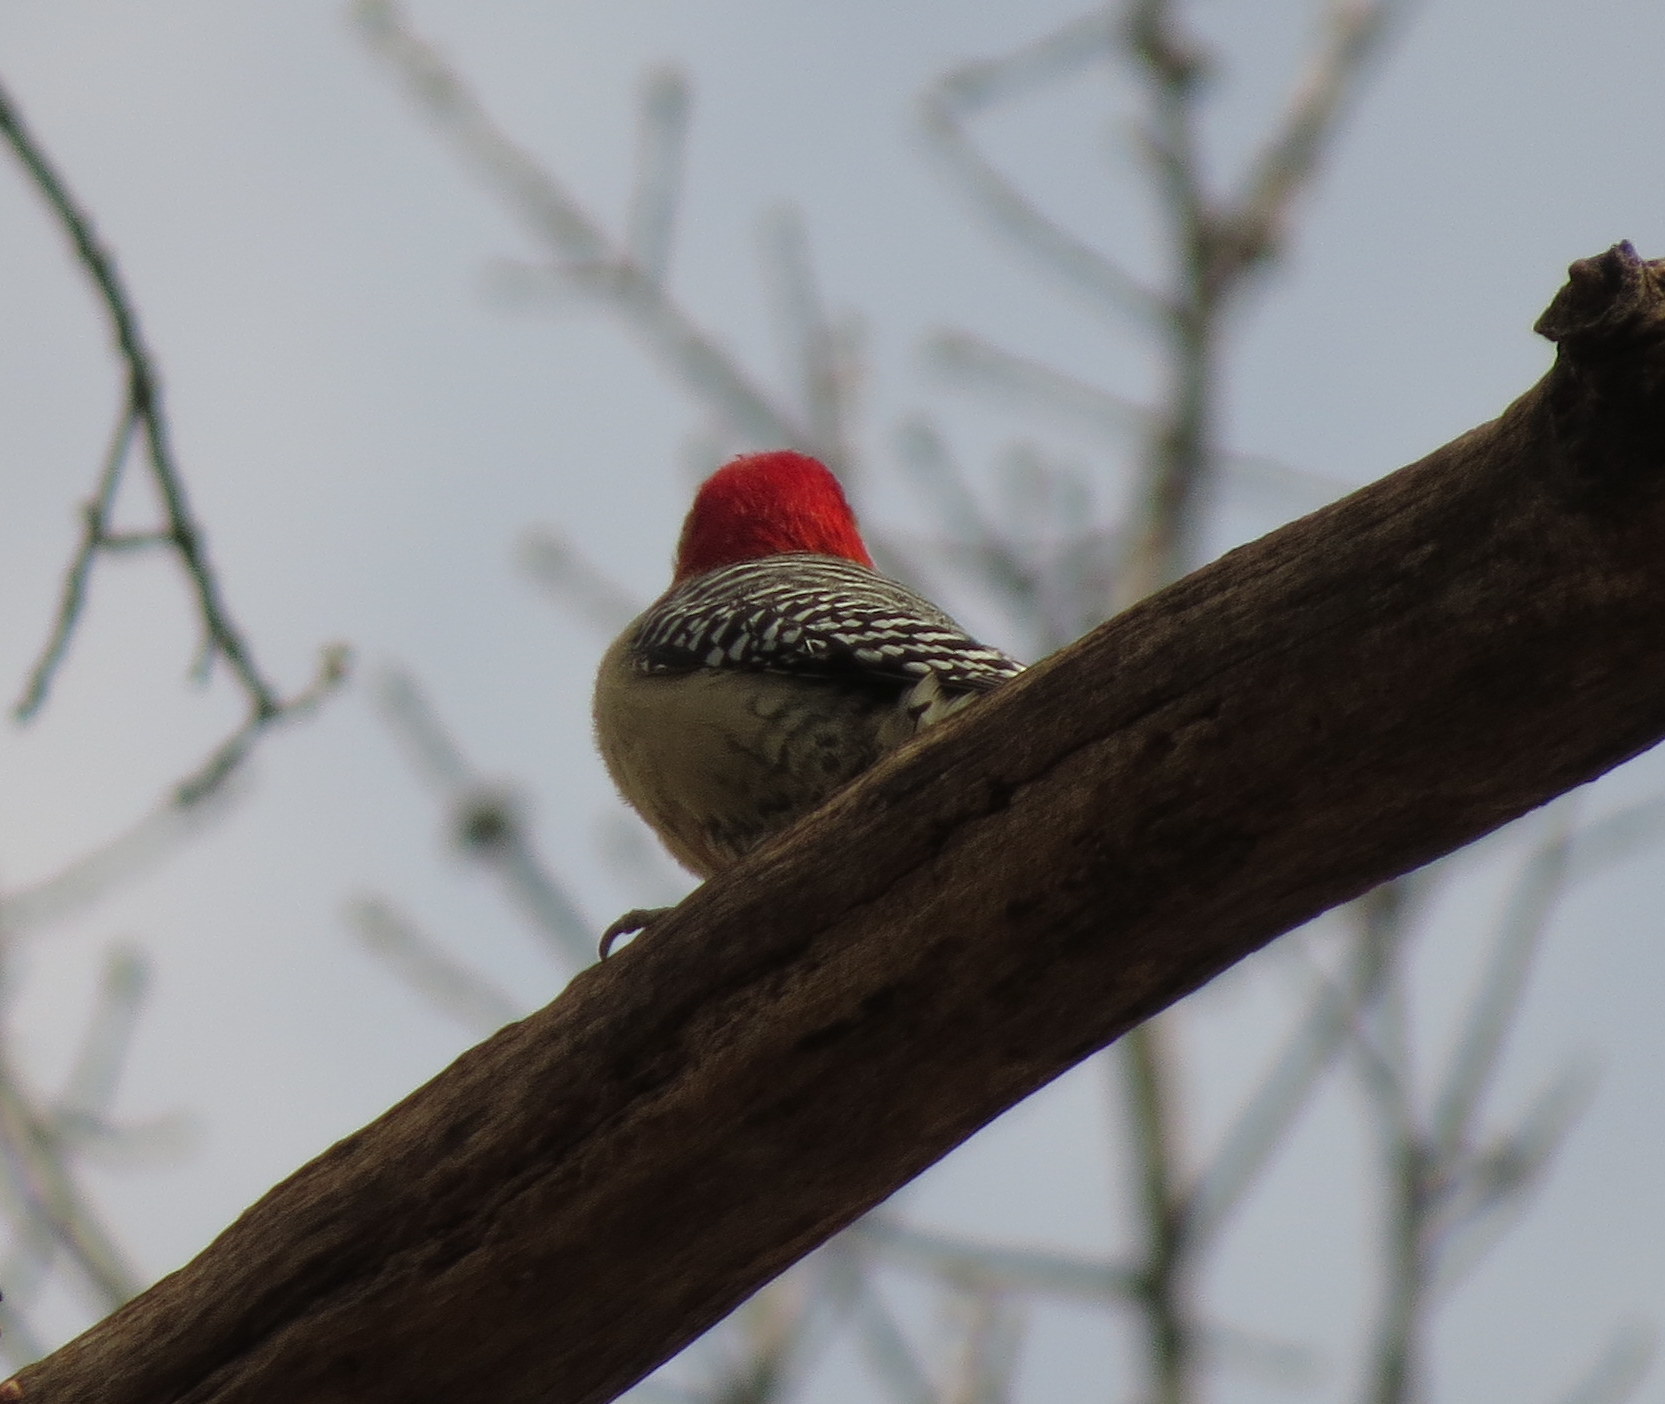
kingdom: Animalia
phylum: Chordata
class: Aves
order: Piciformes
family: Picidae
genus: Melanerpes
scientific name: Melanerpes carolinus
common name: Red-bellied woodpecker
